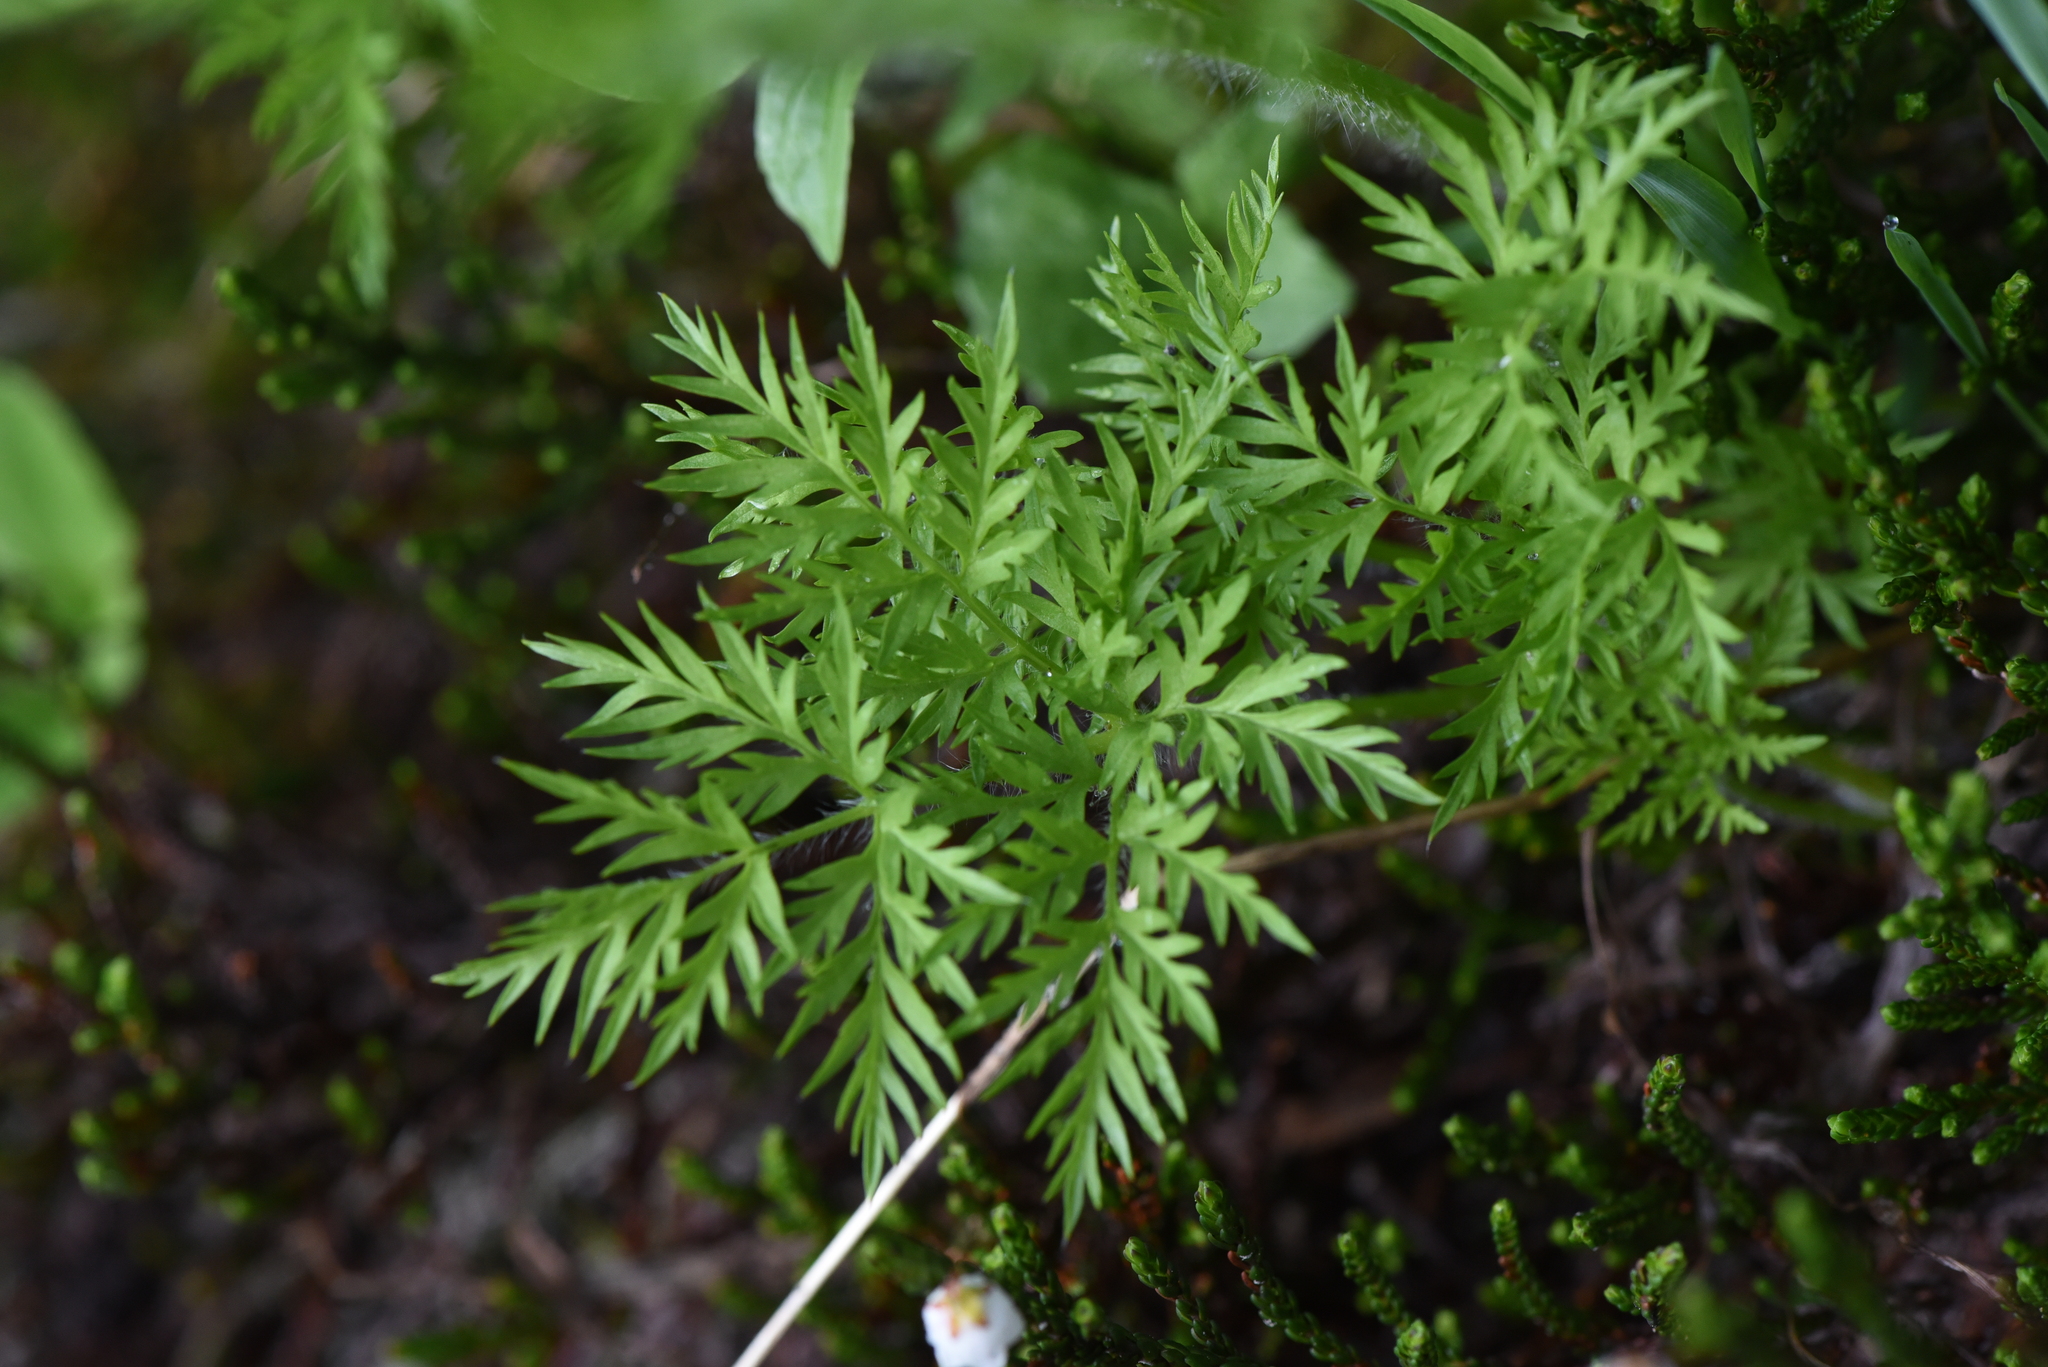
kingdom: Plantae
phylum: Tracheophyta
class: Magnoliopsida
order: Ranunculales
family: Ranunculaceae
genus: Pulsatilla
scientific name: Pulsatilla occidentalis
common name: Mountain pasqueflower
